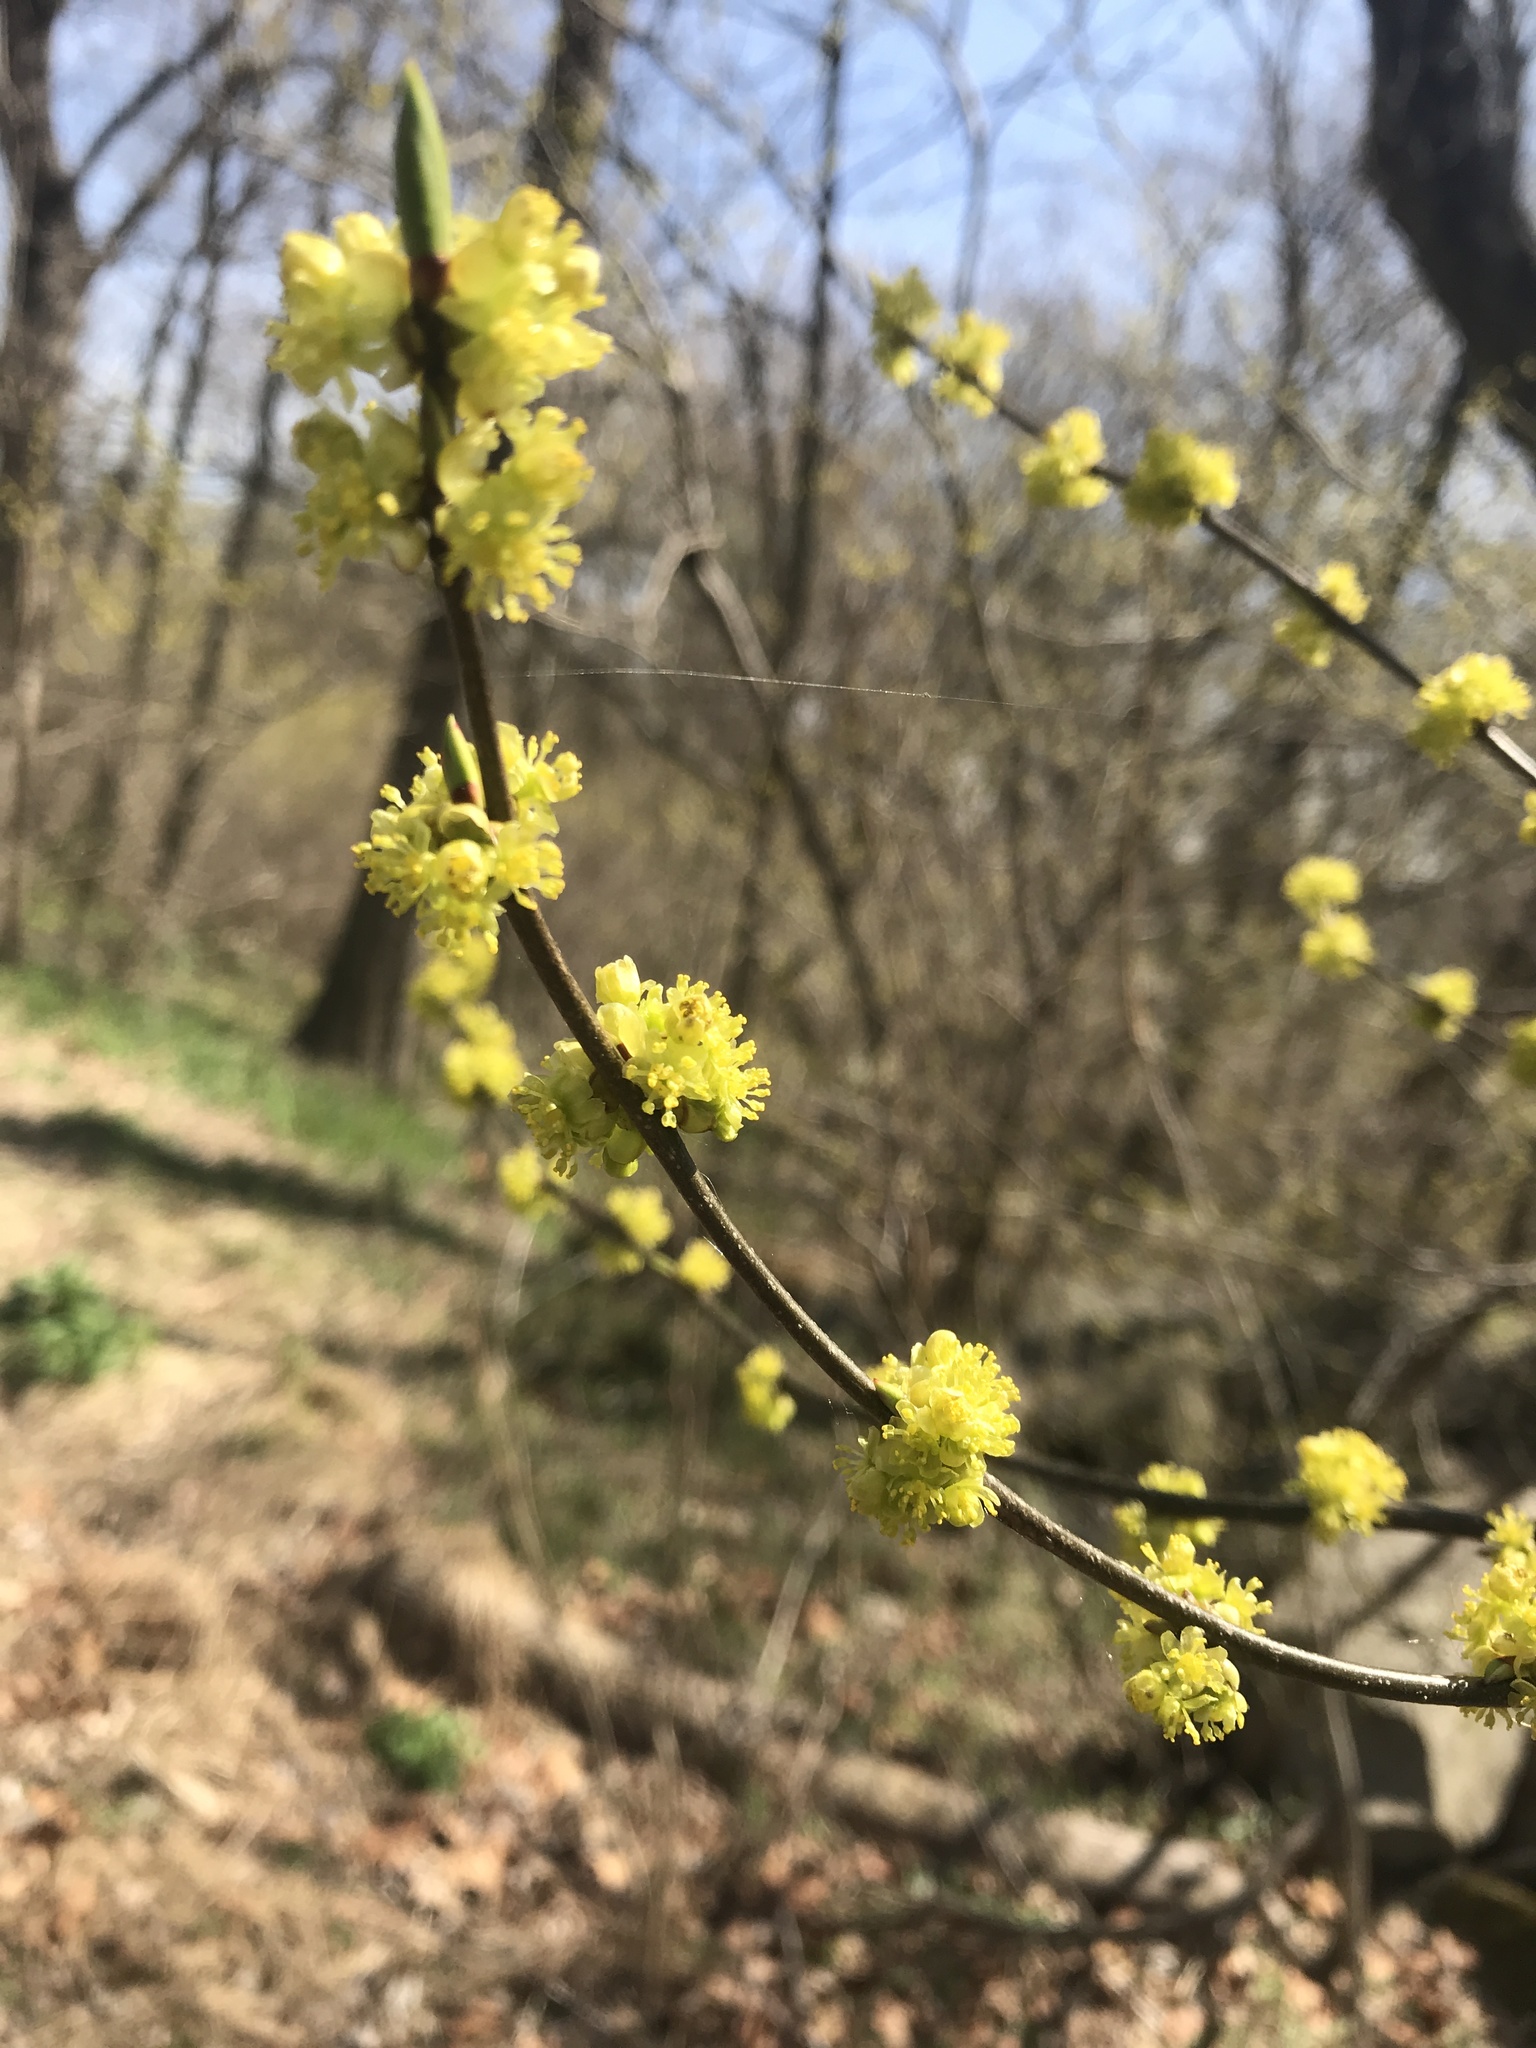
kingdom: Plantae
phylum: Tracheophyta
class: Magnoliopsida
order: Laurales
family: Lauraceae
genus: Lindera
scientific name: Lindera benzoin
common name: Spicebush
